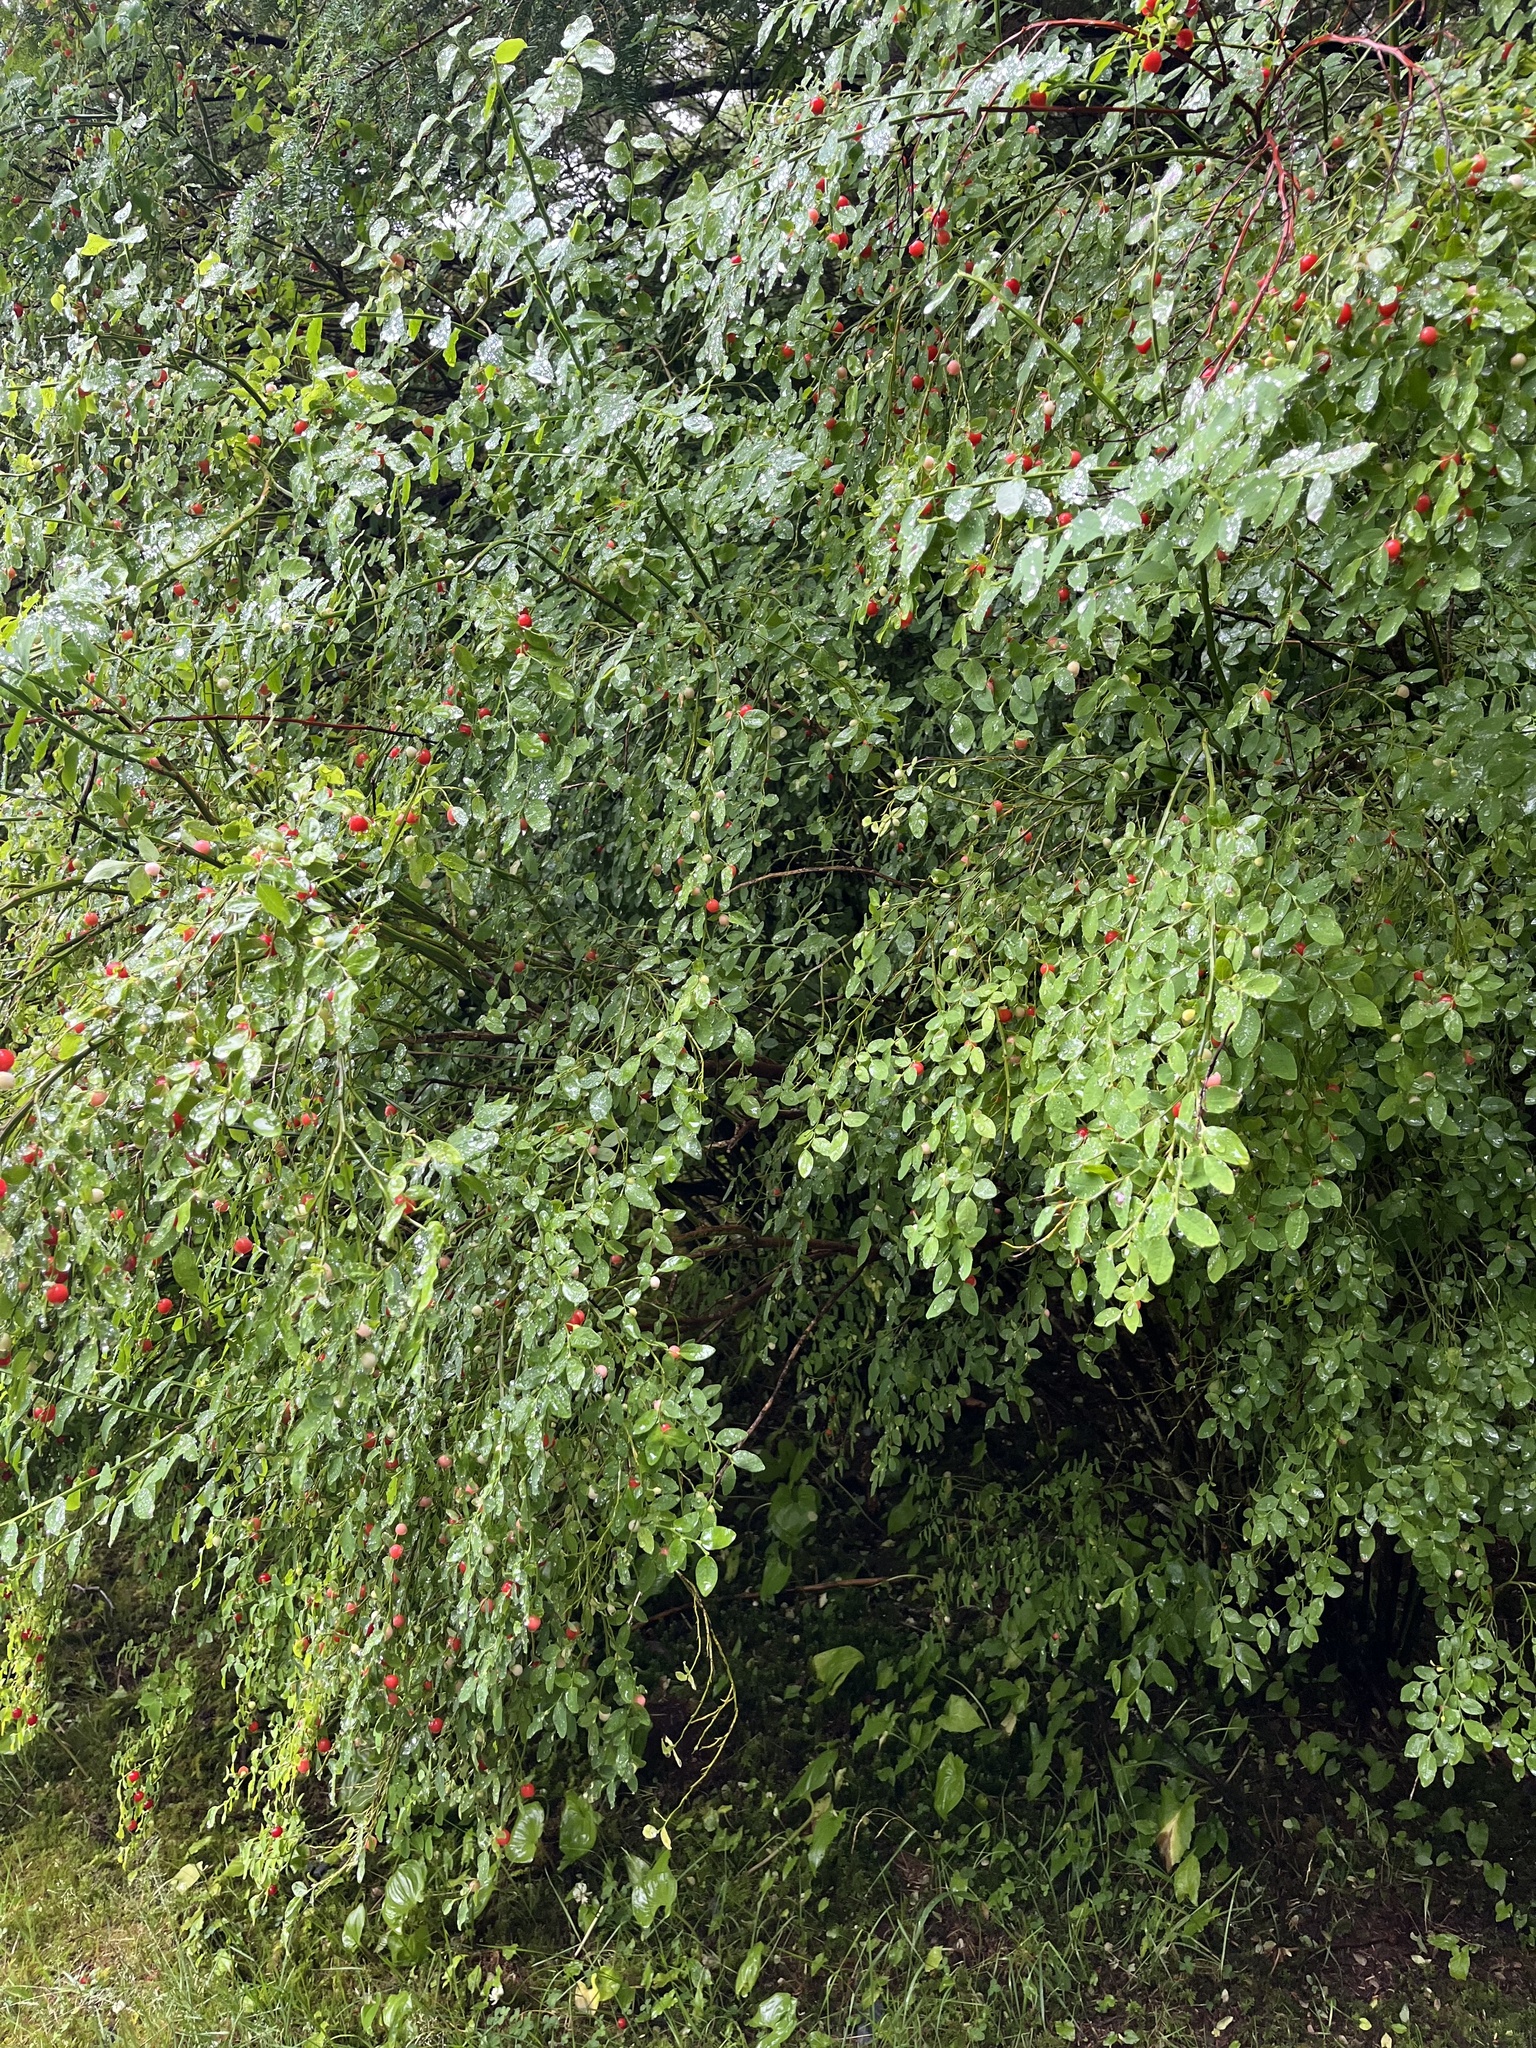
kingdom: Plantae
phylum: Tracheophyta
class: Magnoliopsida
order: Ericales
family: Ericaceae
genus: Vaccinium
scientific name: Vaccinium parvifolium
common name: Red-huckleberry
